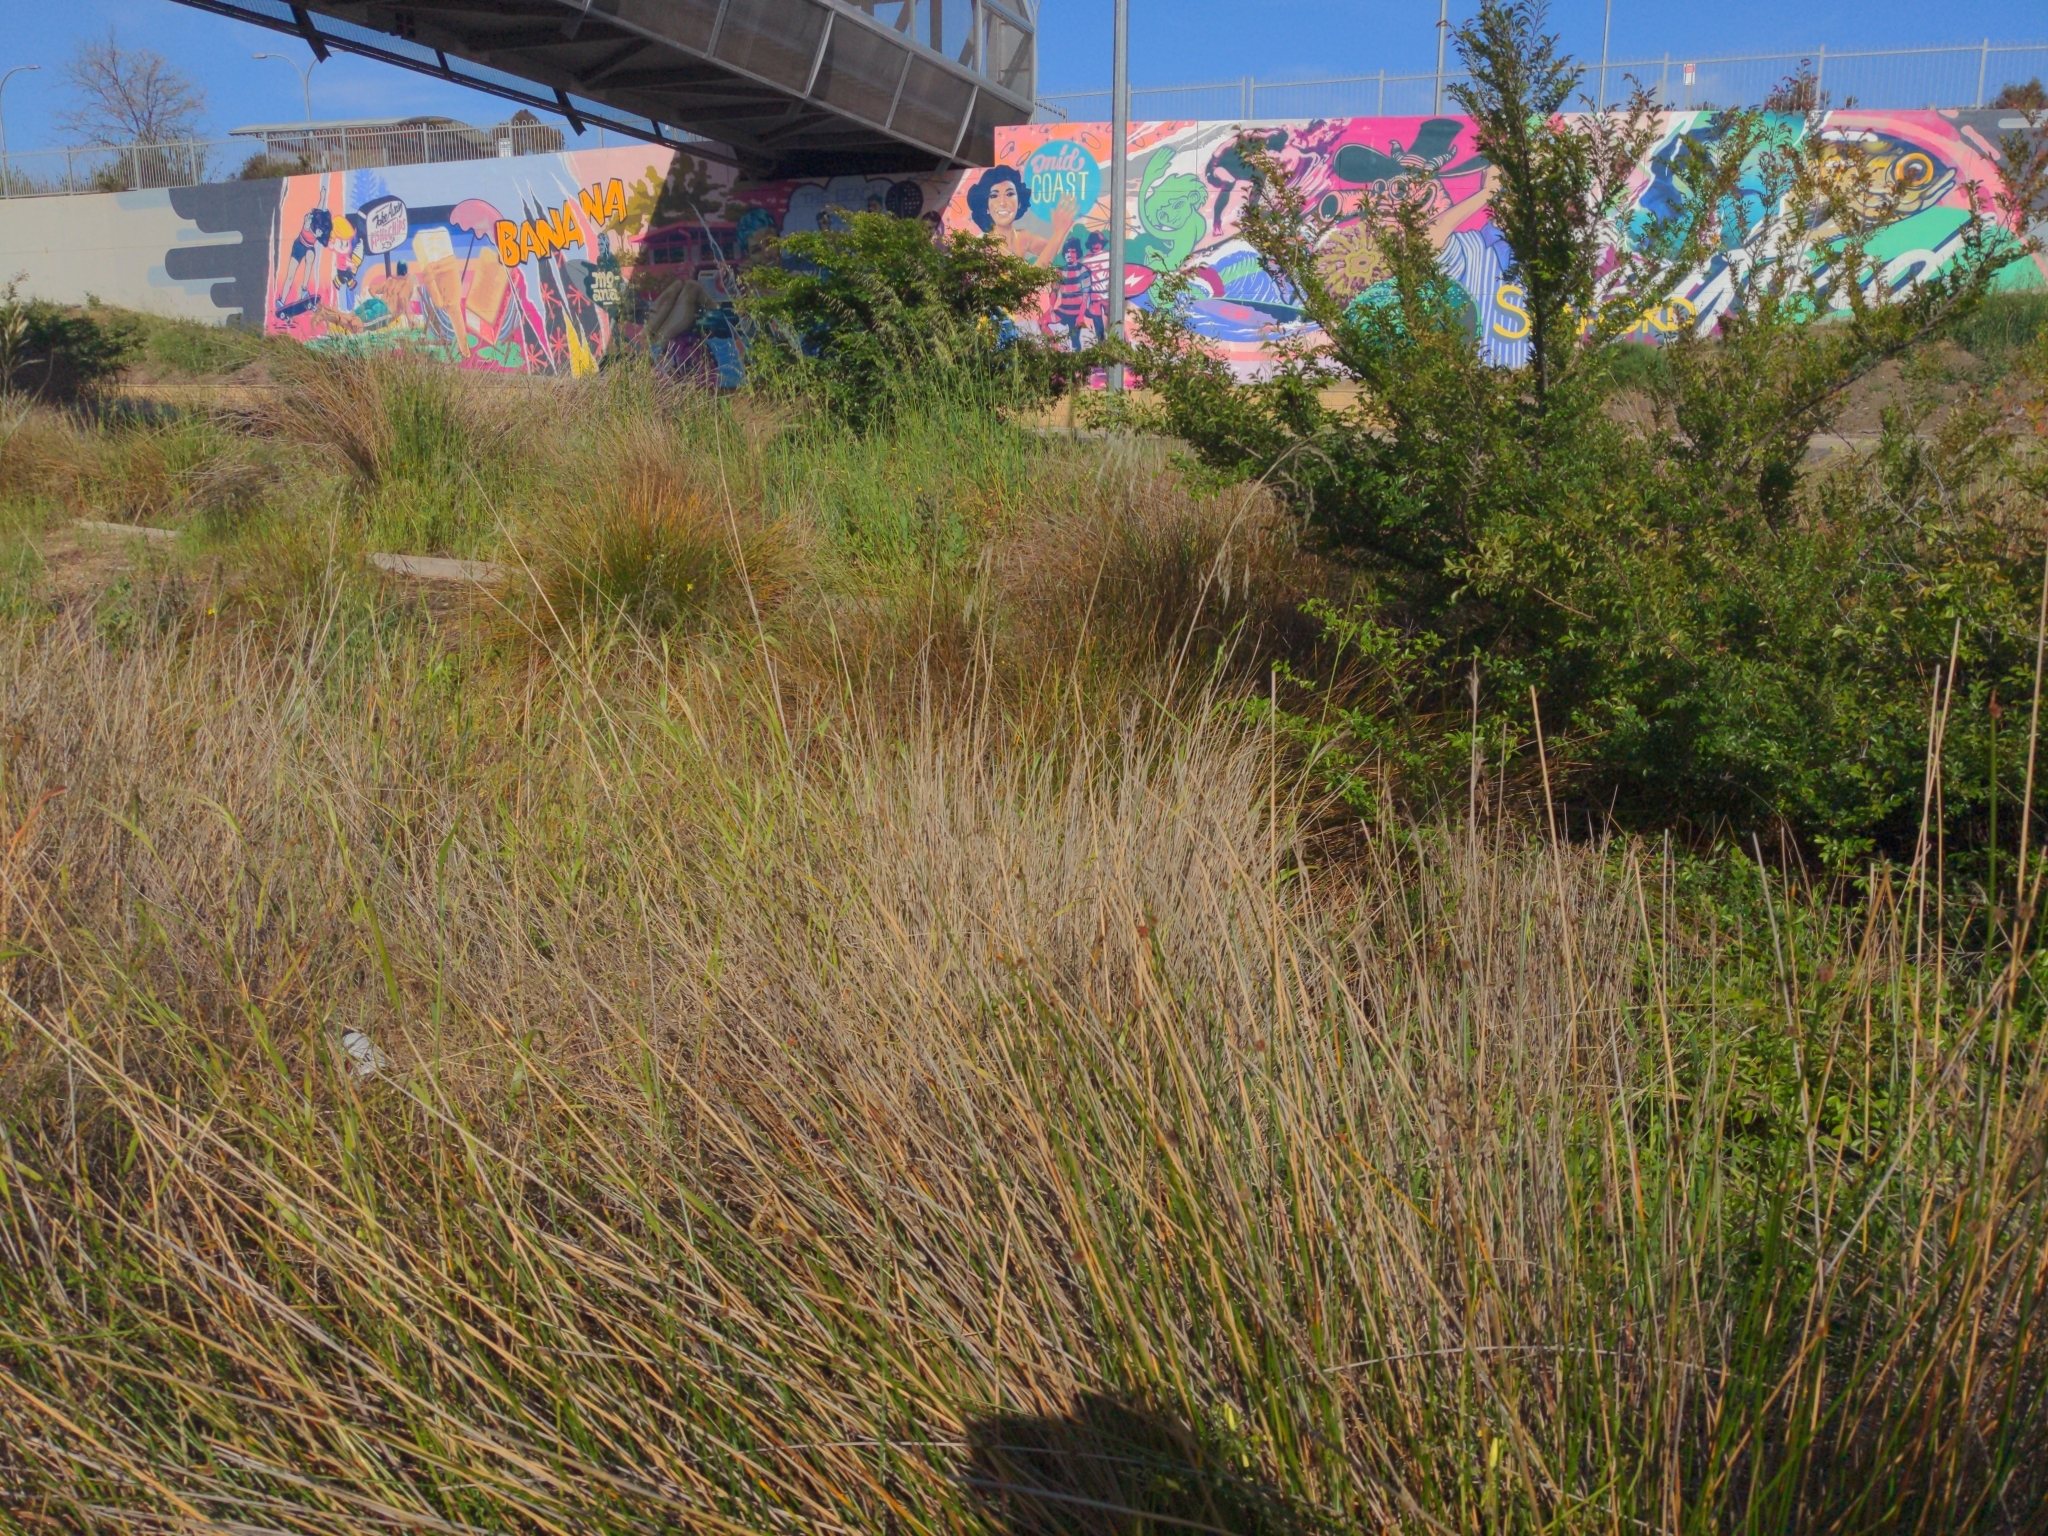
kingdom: Animalia
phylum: Chordata
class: Amphibia
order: Anura
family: Myobatrachidae
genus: Crinia
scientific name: Crinia signifera
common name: Brown froglet
